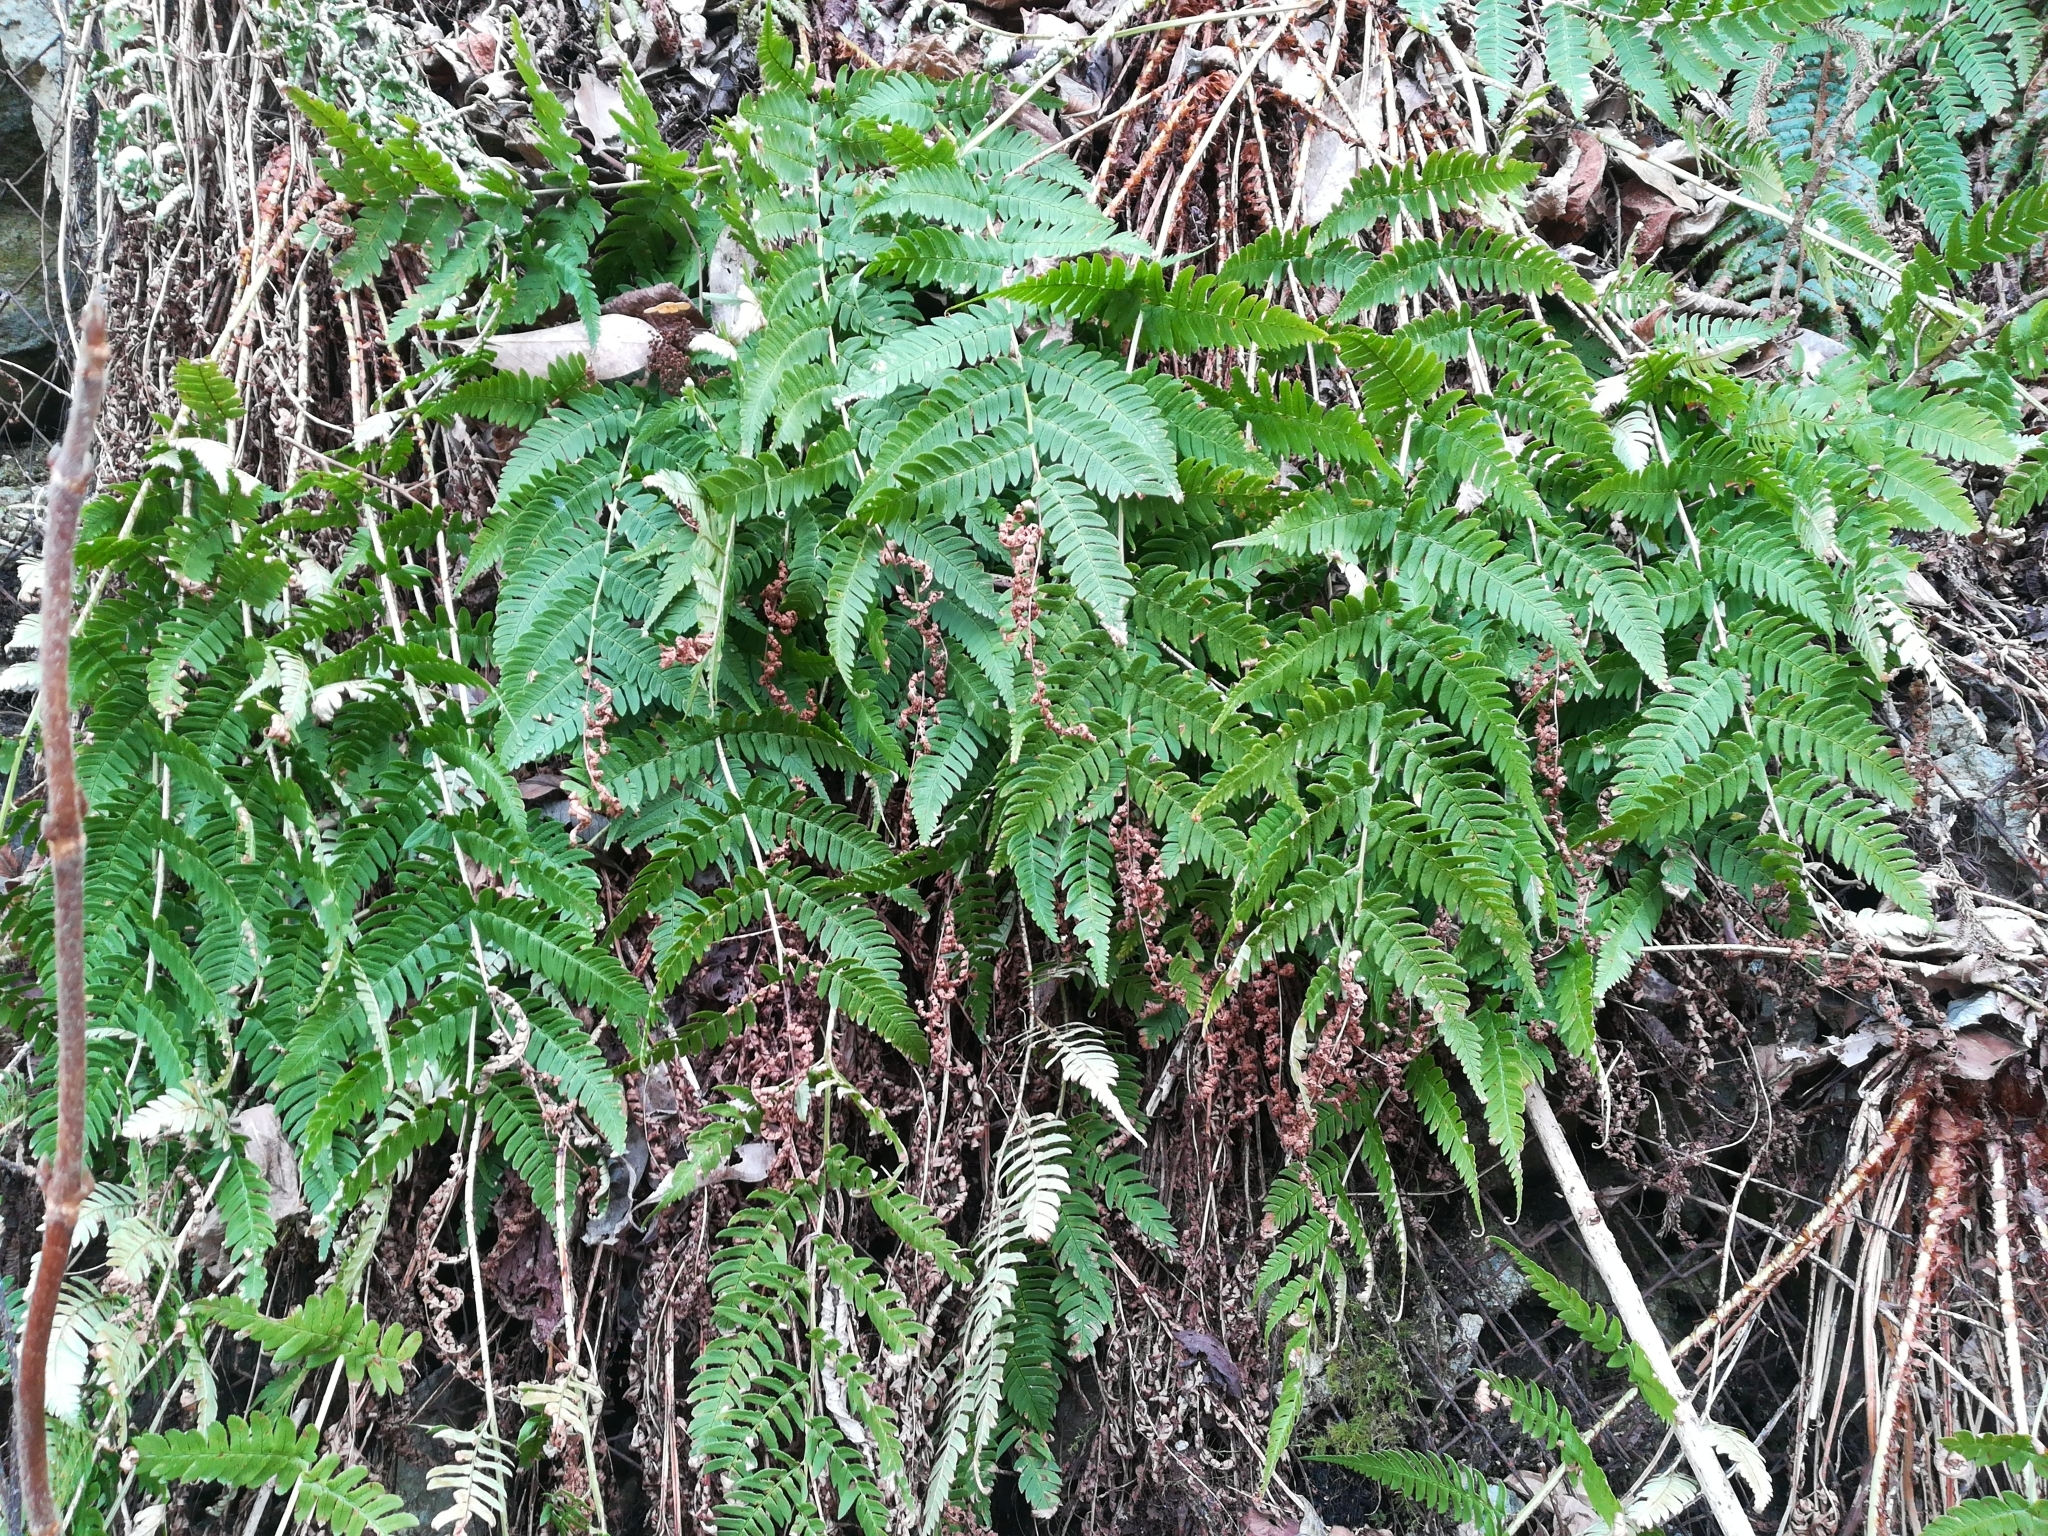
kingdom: Plantae
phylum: Tracheophyta
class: Polypodiopsida
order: Polypodiales
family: Dryopteridaceae
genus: Dryopteris
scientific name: Dryopteris lacera
